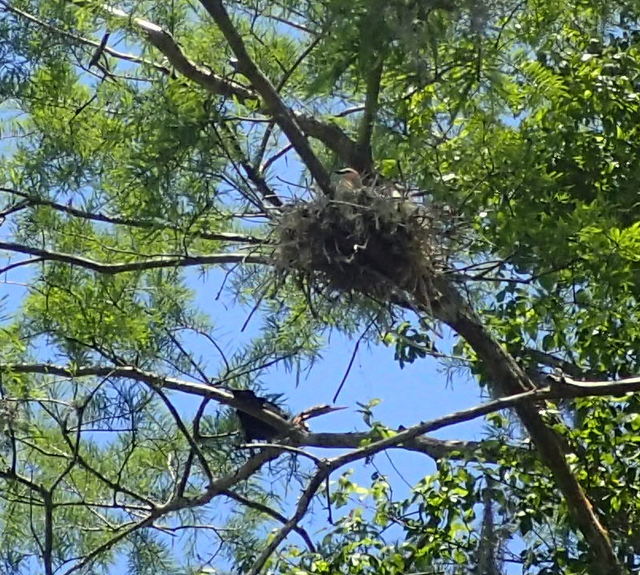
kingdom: Animalia
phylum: Chordata
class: Aves
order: Suliformes
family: Anhingidae
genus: Anhinga
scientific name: Anhinga anhinga
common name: Anhinga
